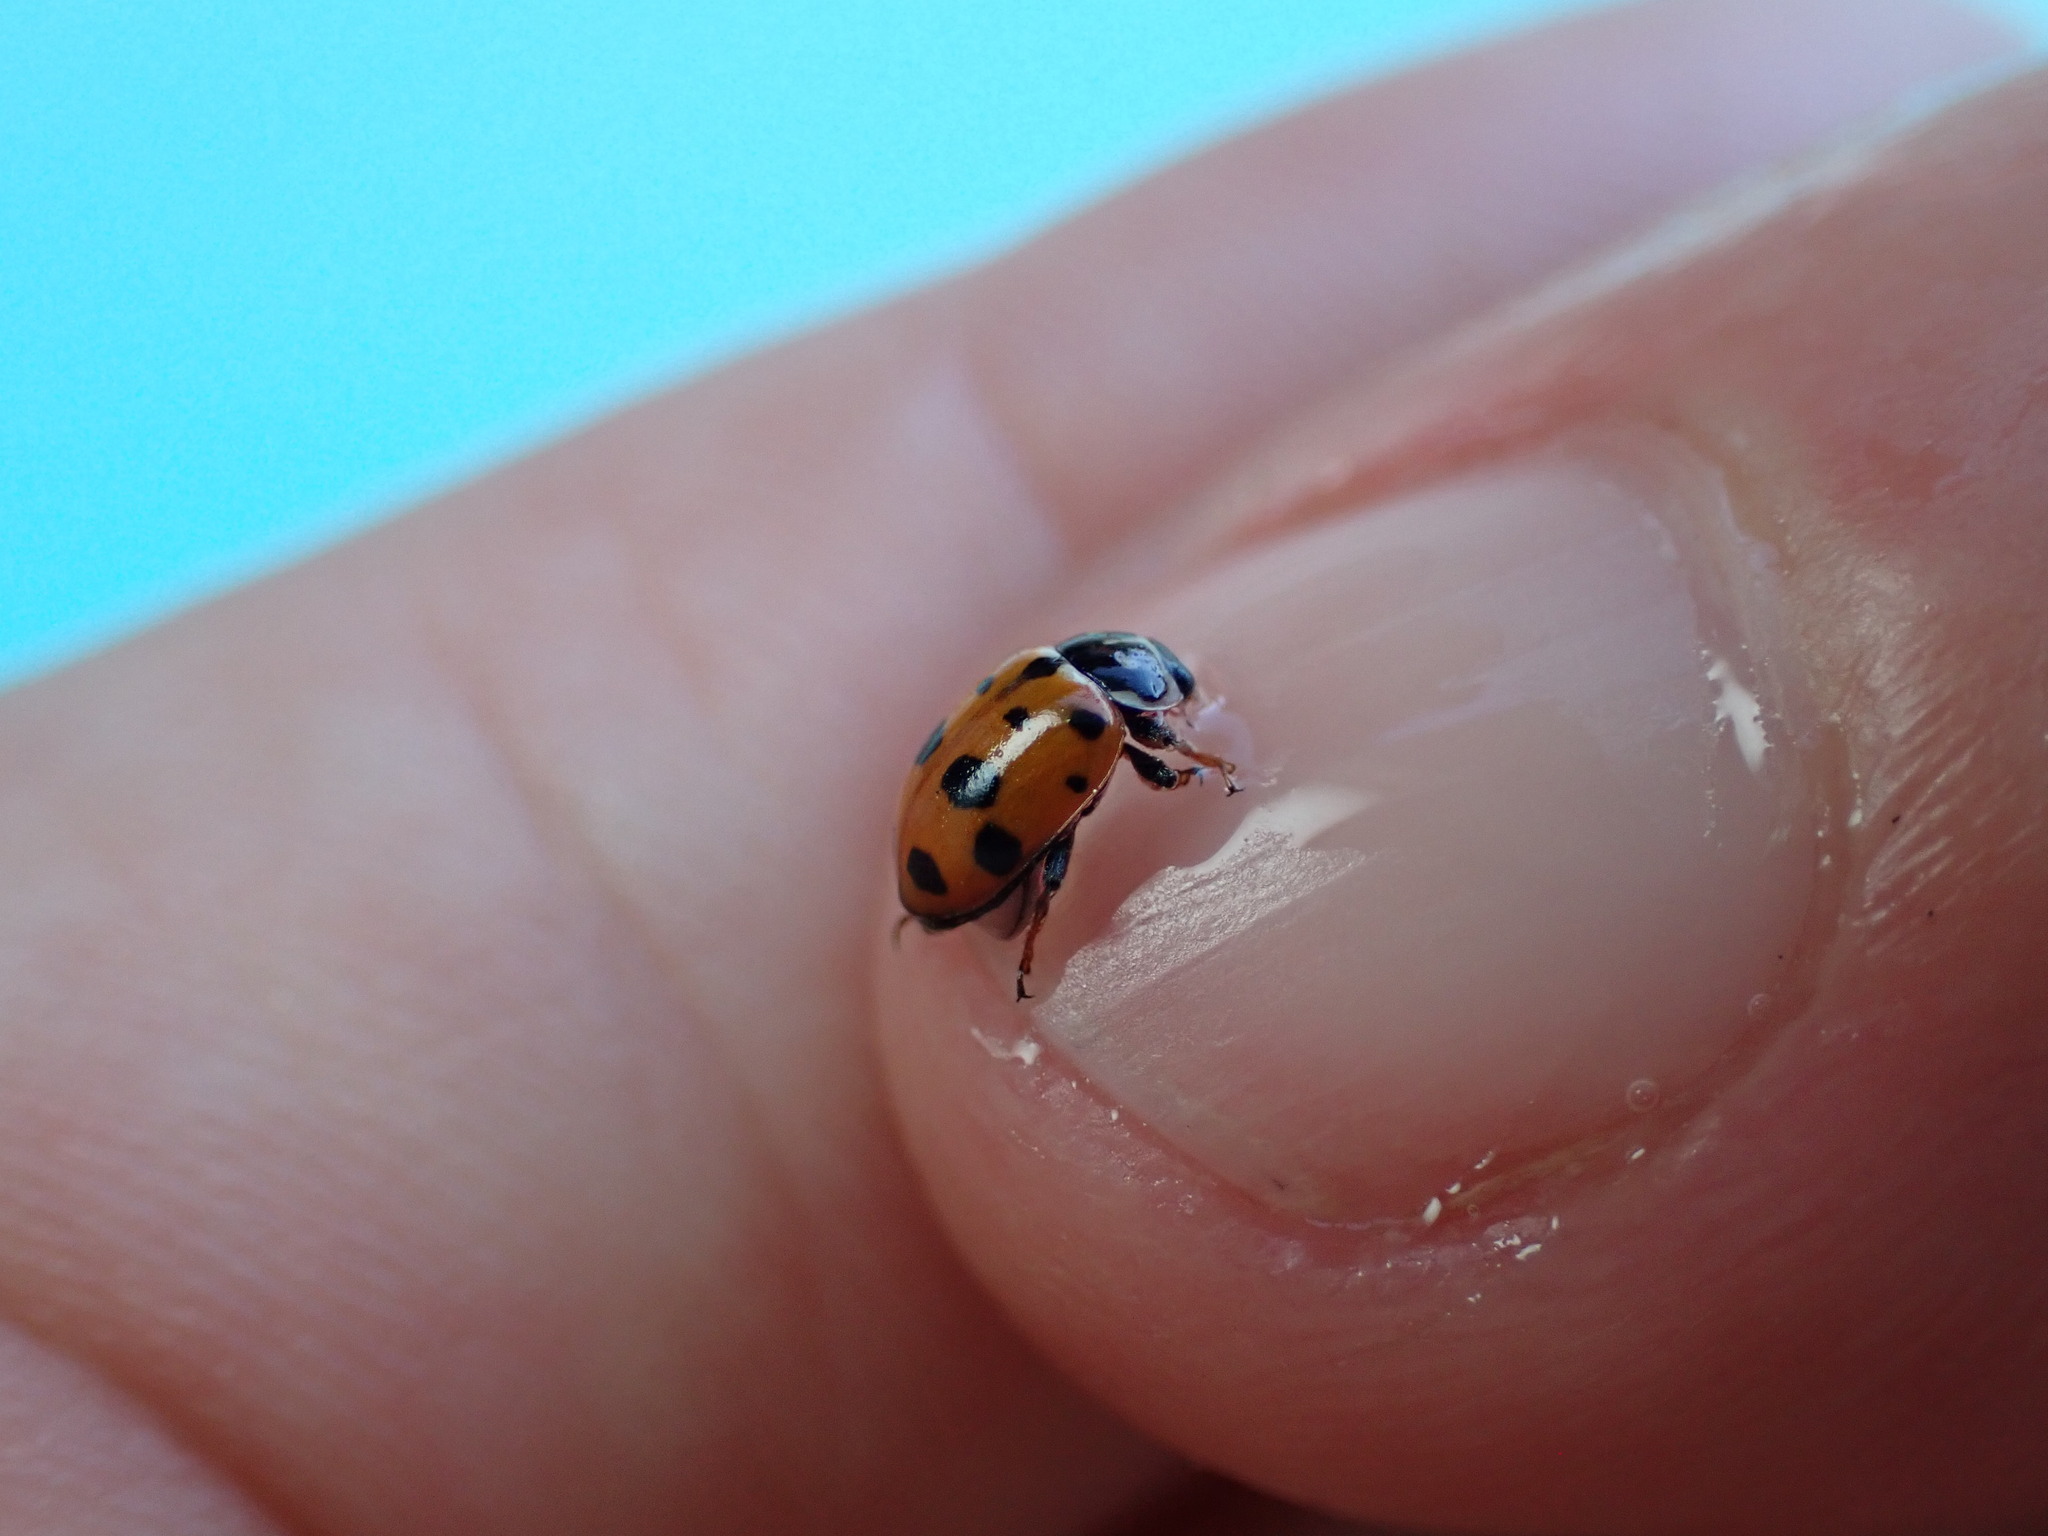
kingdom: Animalia
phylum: Arthropoda
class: Insecta
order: Coleoptera
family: Coccinellidae
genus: Hippodamia
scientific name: Hippodamia variegata
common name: Ladybird beetle
